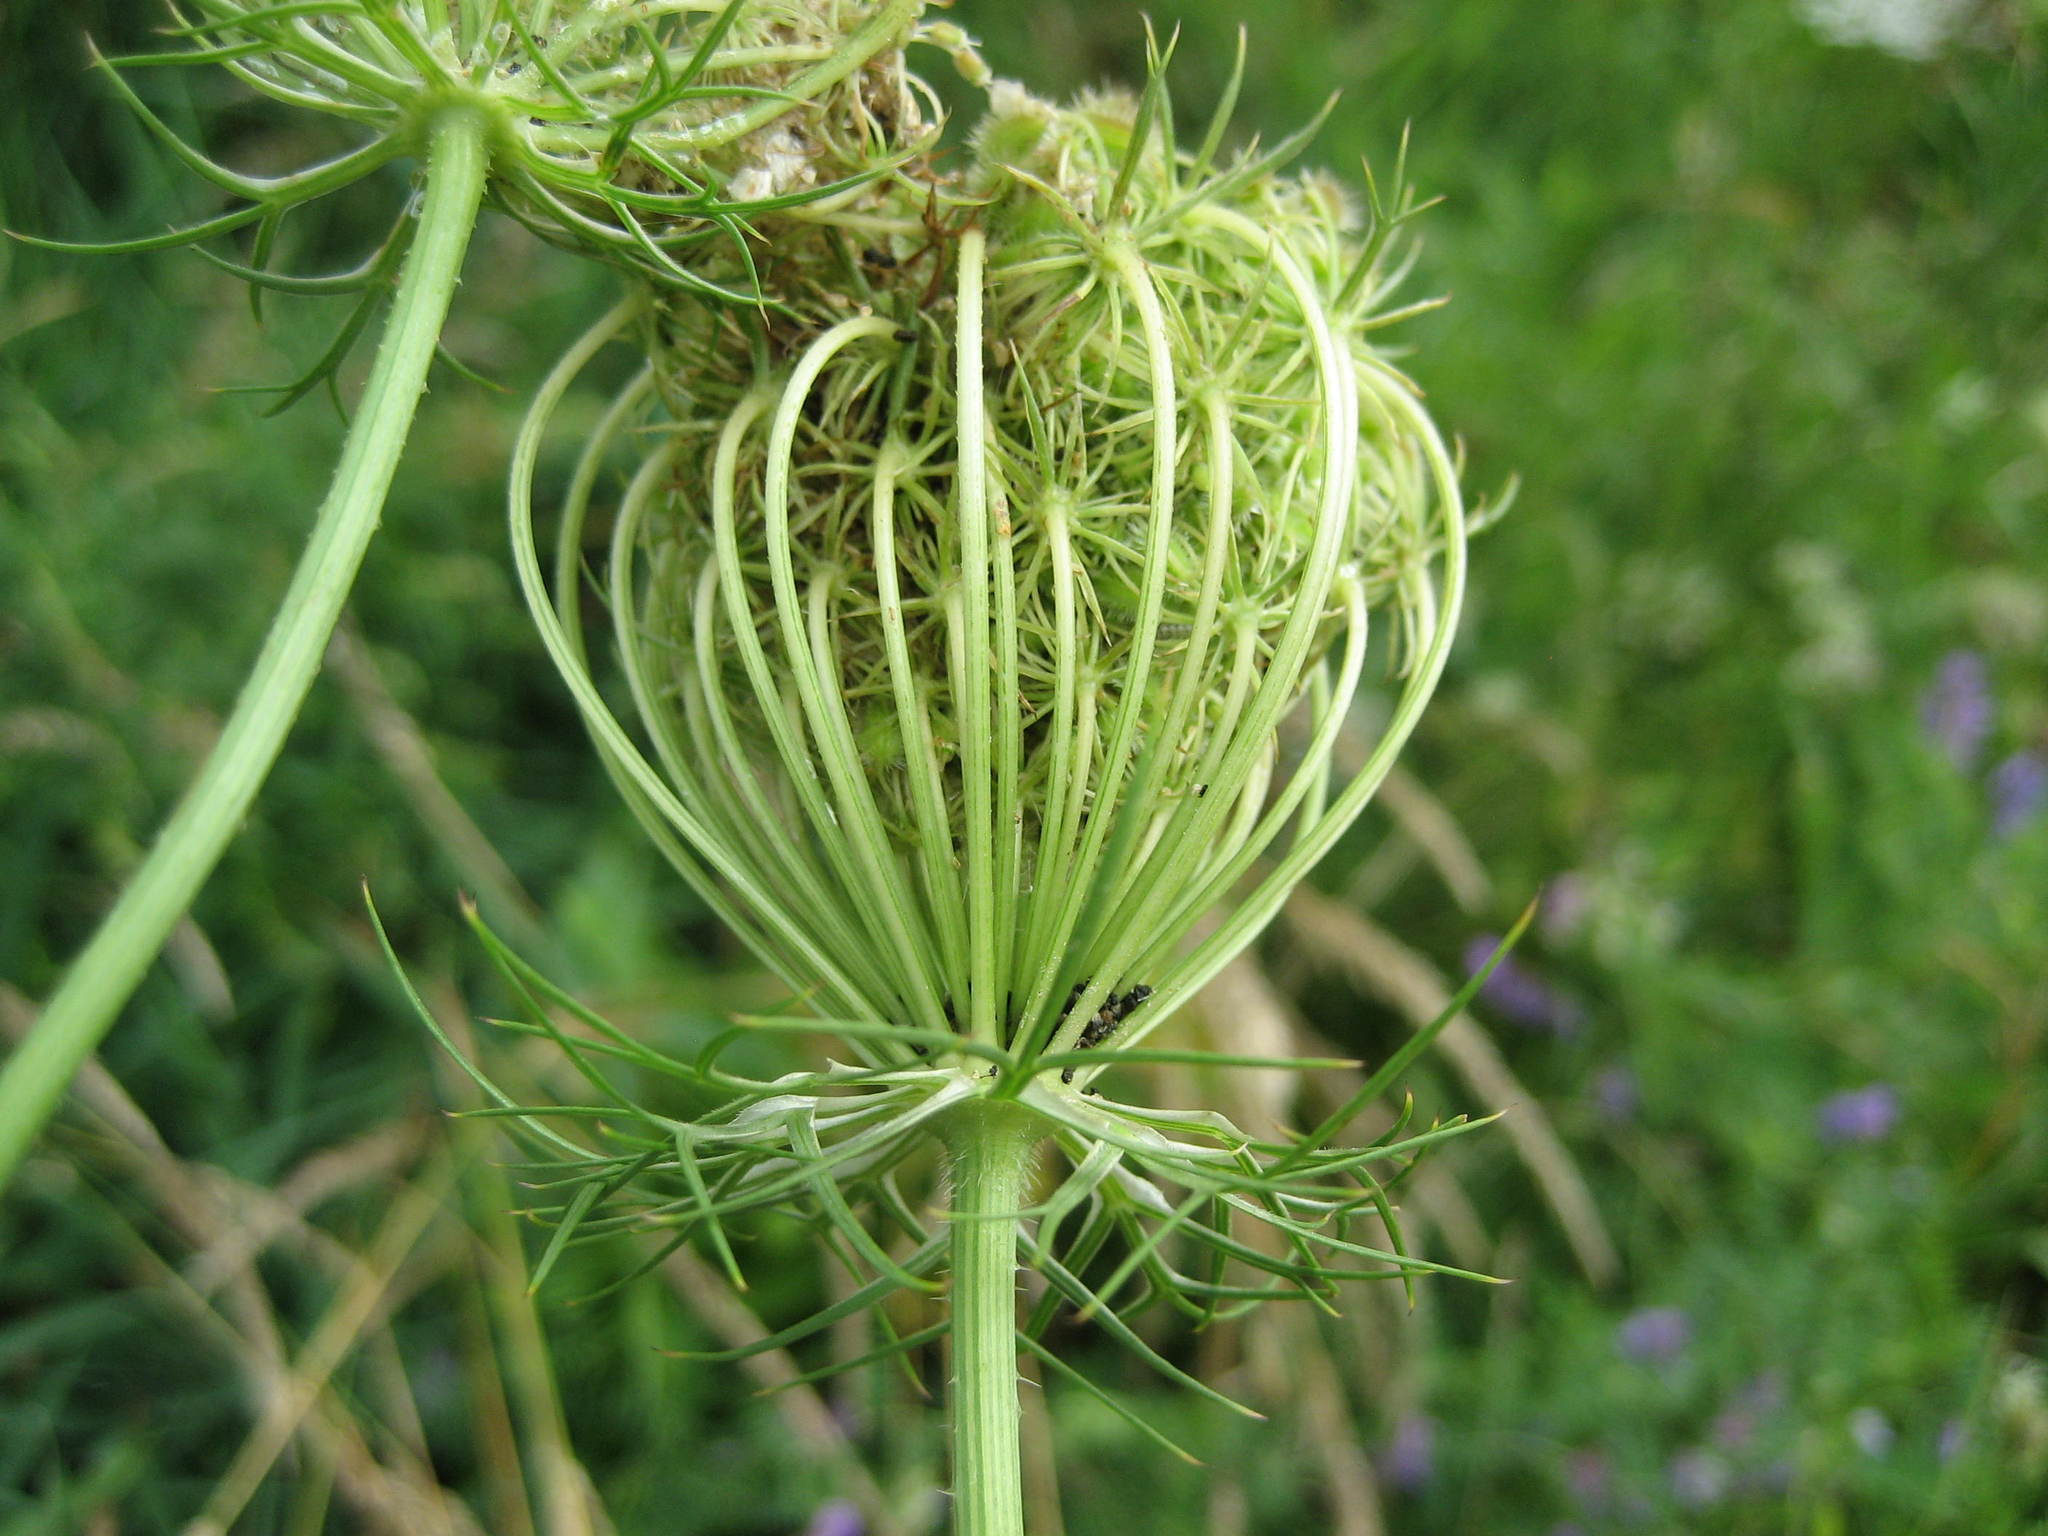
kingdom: Plantae
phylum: Tracheophyta
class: Magnoliopsida
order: Apiales
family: Apiaceae
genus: Daucus
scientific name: Daucus carota
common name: Wild carrot
